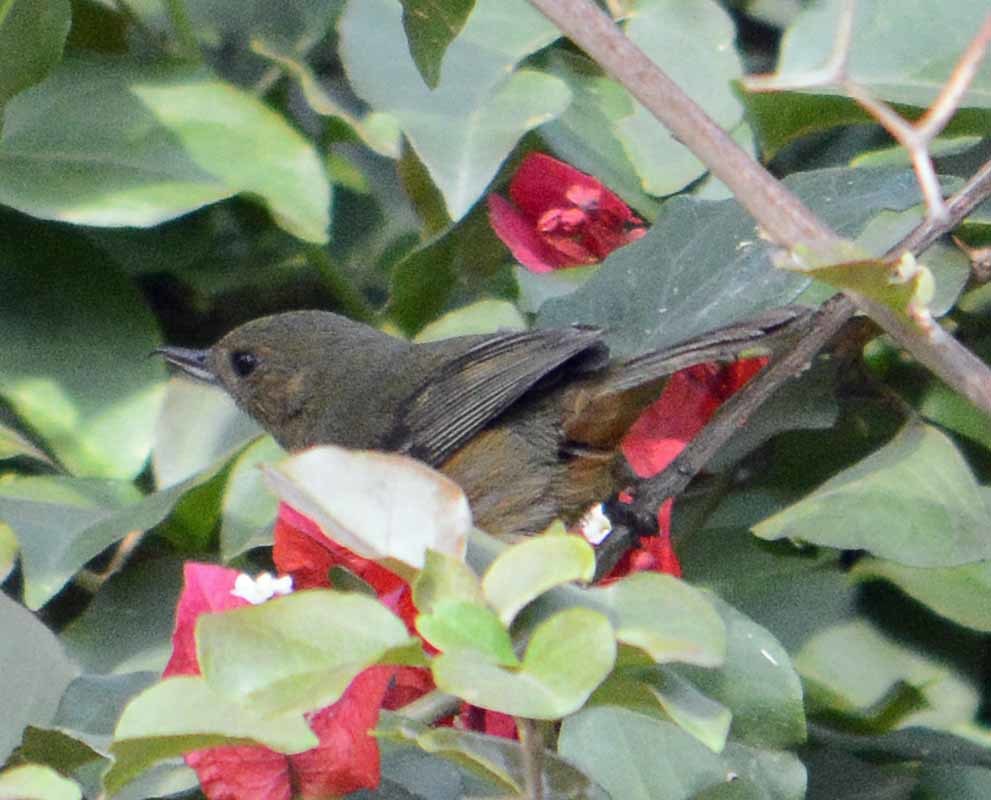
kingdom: Animalia
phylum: Chordata
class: Aves
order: Passeriformes
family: Thraupidae
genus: Diglossa
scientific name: Diglossa baritula
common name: Cinnamon-bellied flowerpiercer
